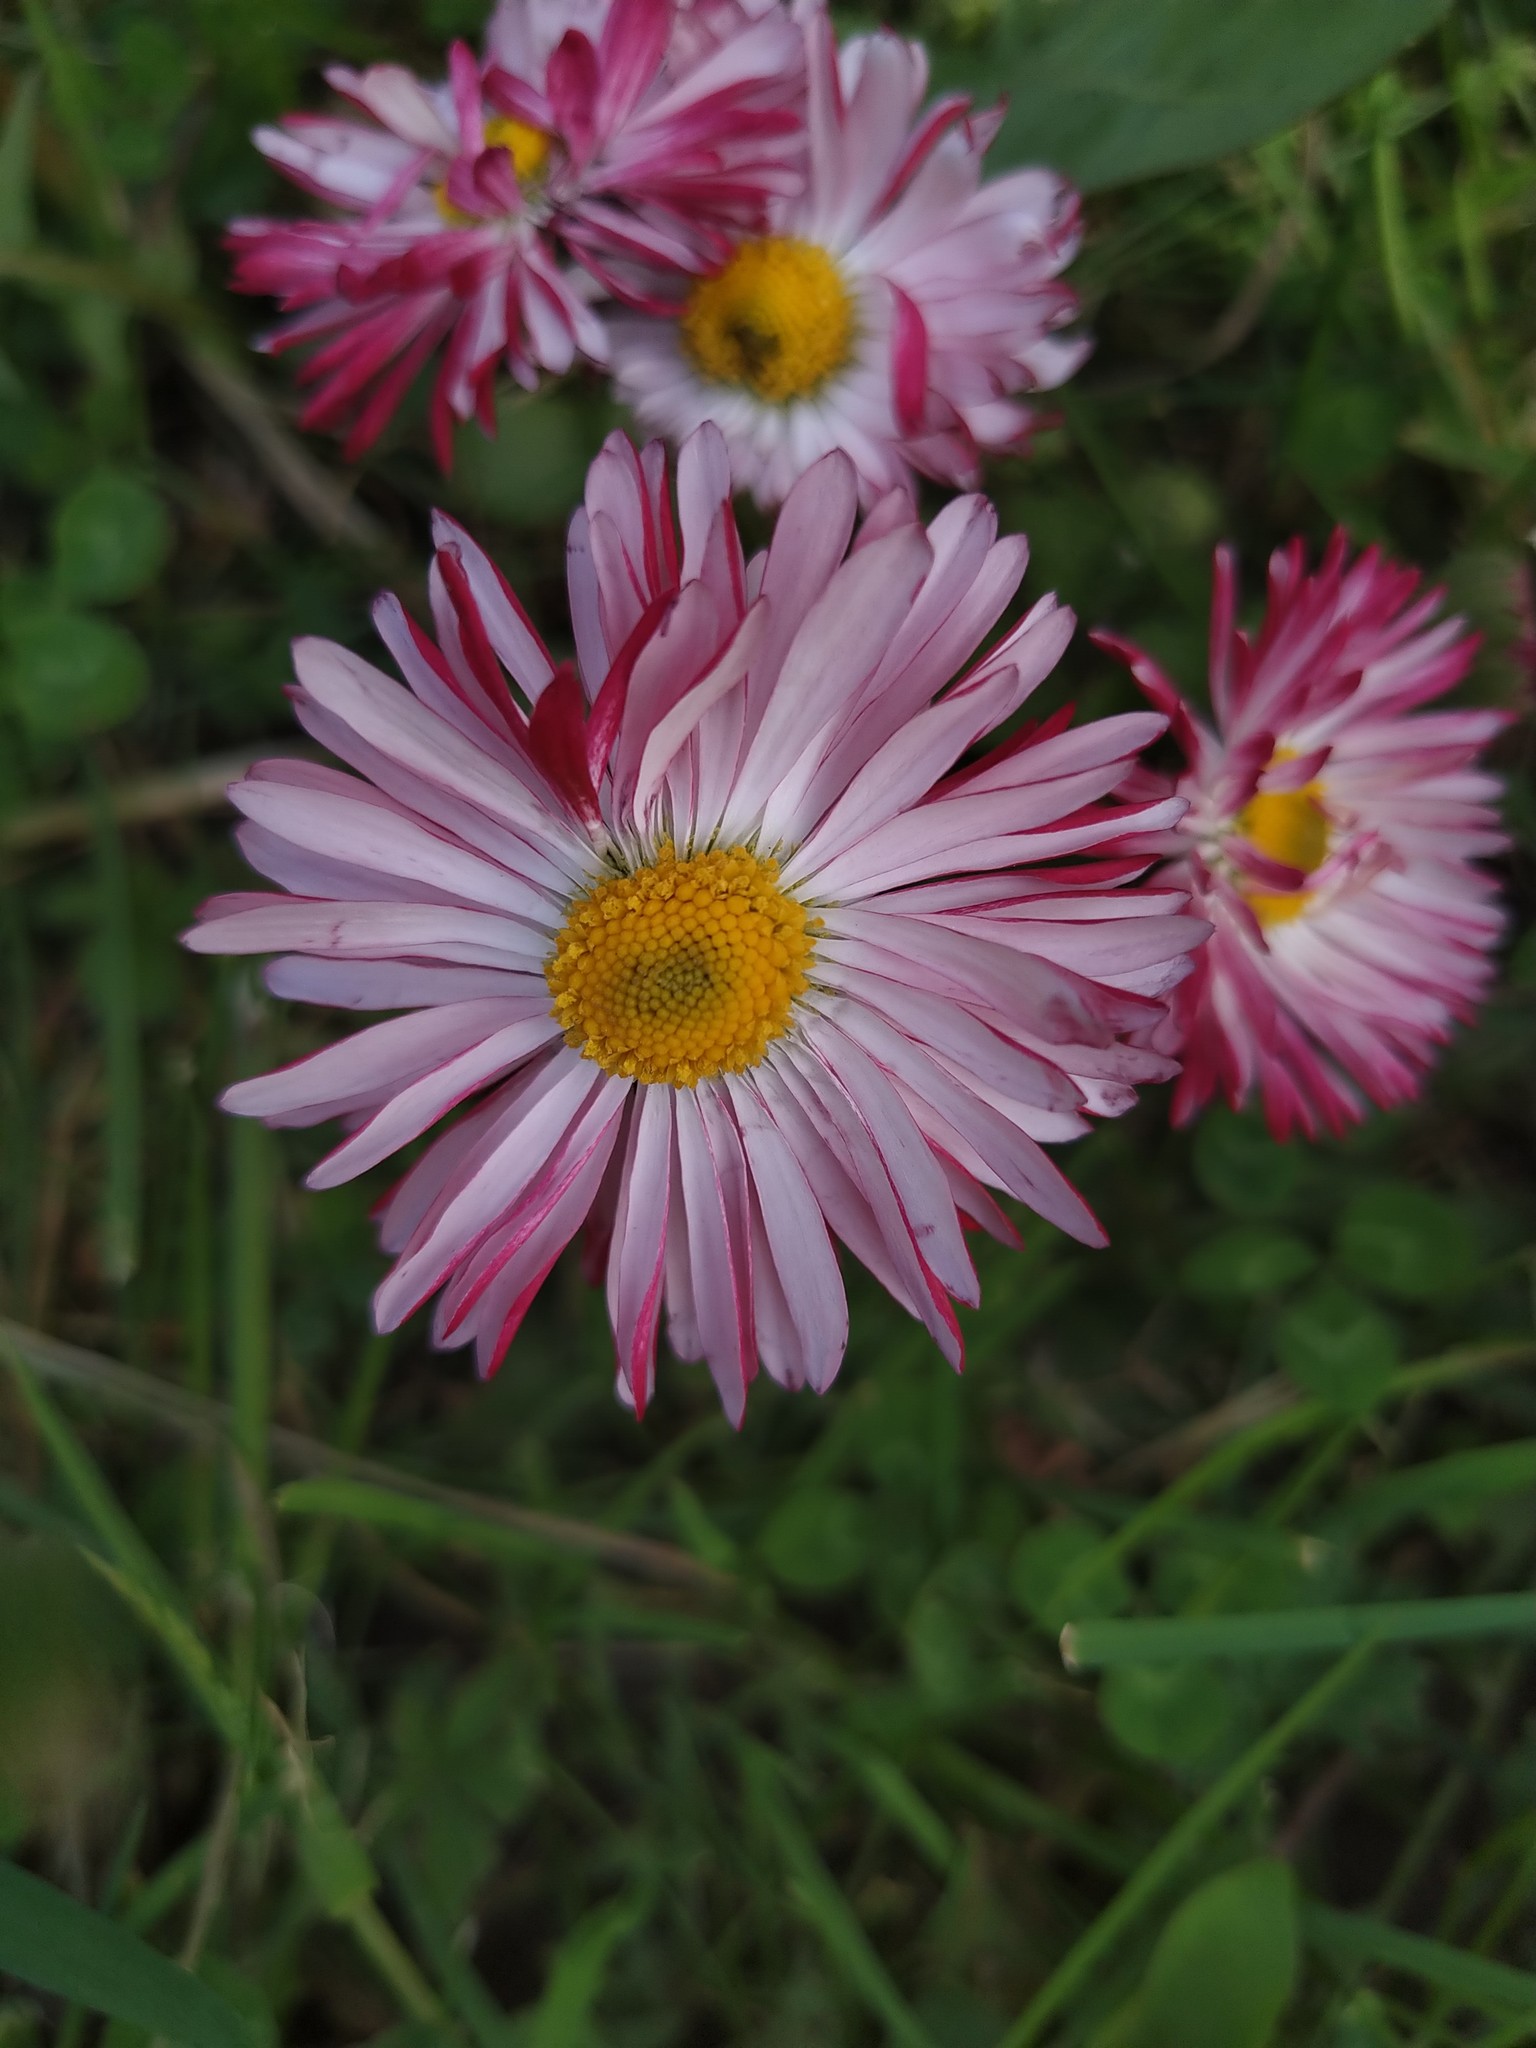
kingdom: Plantae
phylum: Tracheophyta
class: Magnoliopsida
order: Asterales
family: Asteraceae
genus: Bellis
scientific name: Bellis perennis
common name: Lawndaisy
